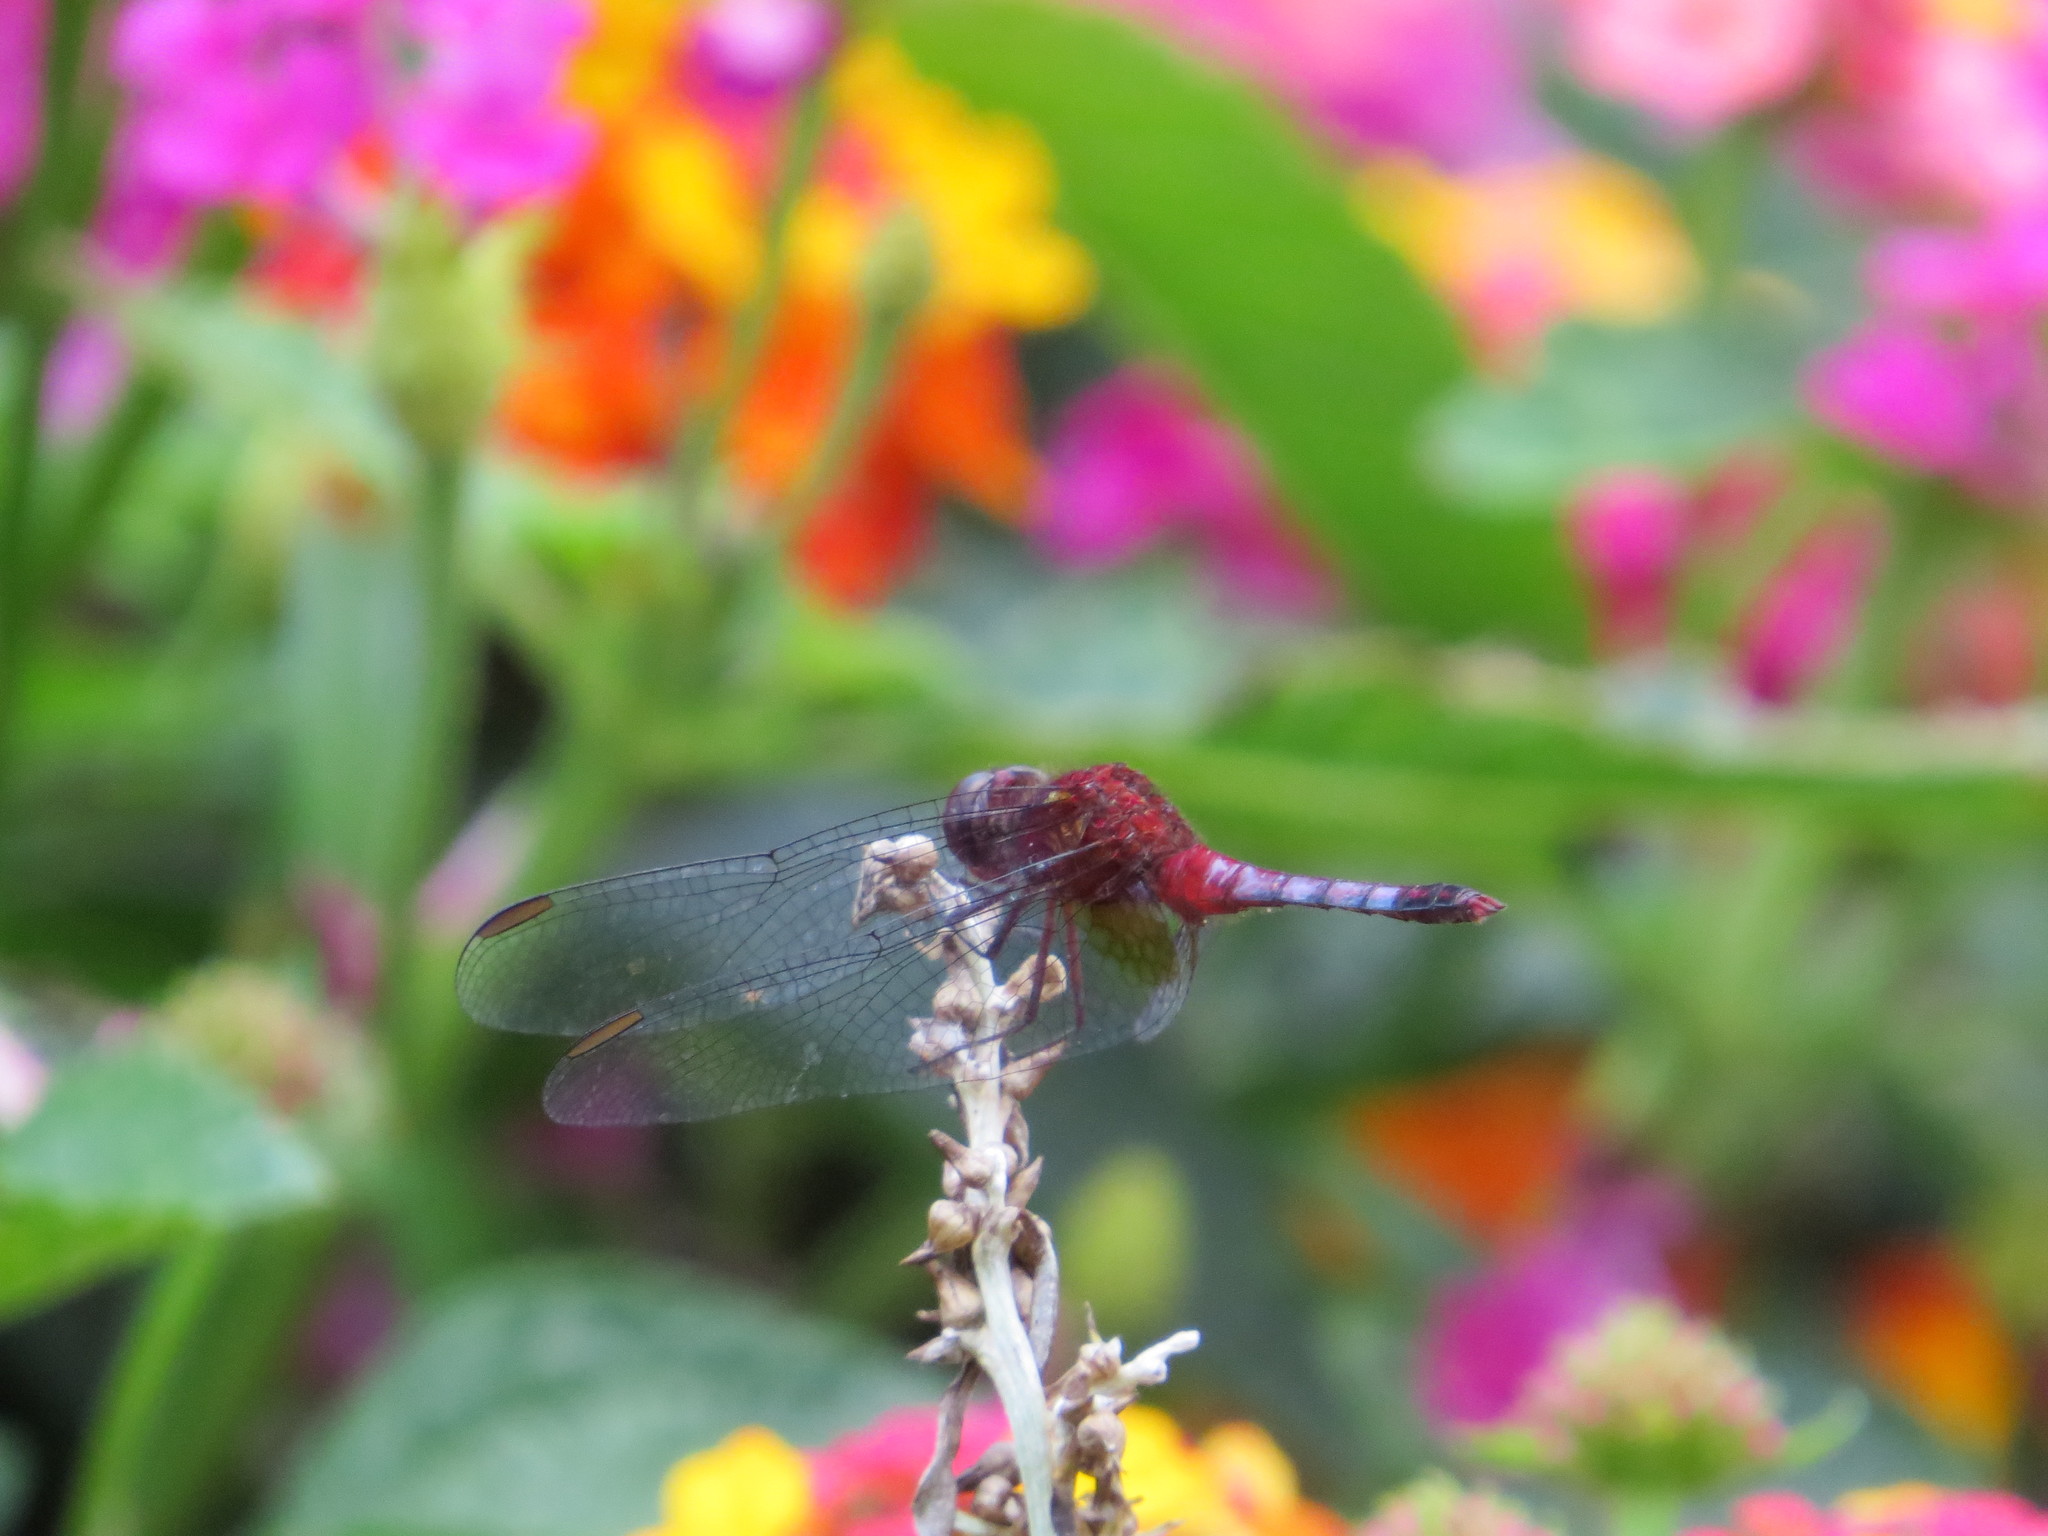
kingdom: Animalia
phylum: Arthropoda
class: Insecta
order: Odonata
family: Libellulidae
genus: Erythrodiplax
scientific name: Erythrodiplax fusca
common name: Red-faced dragonlet
